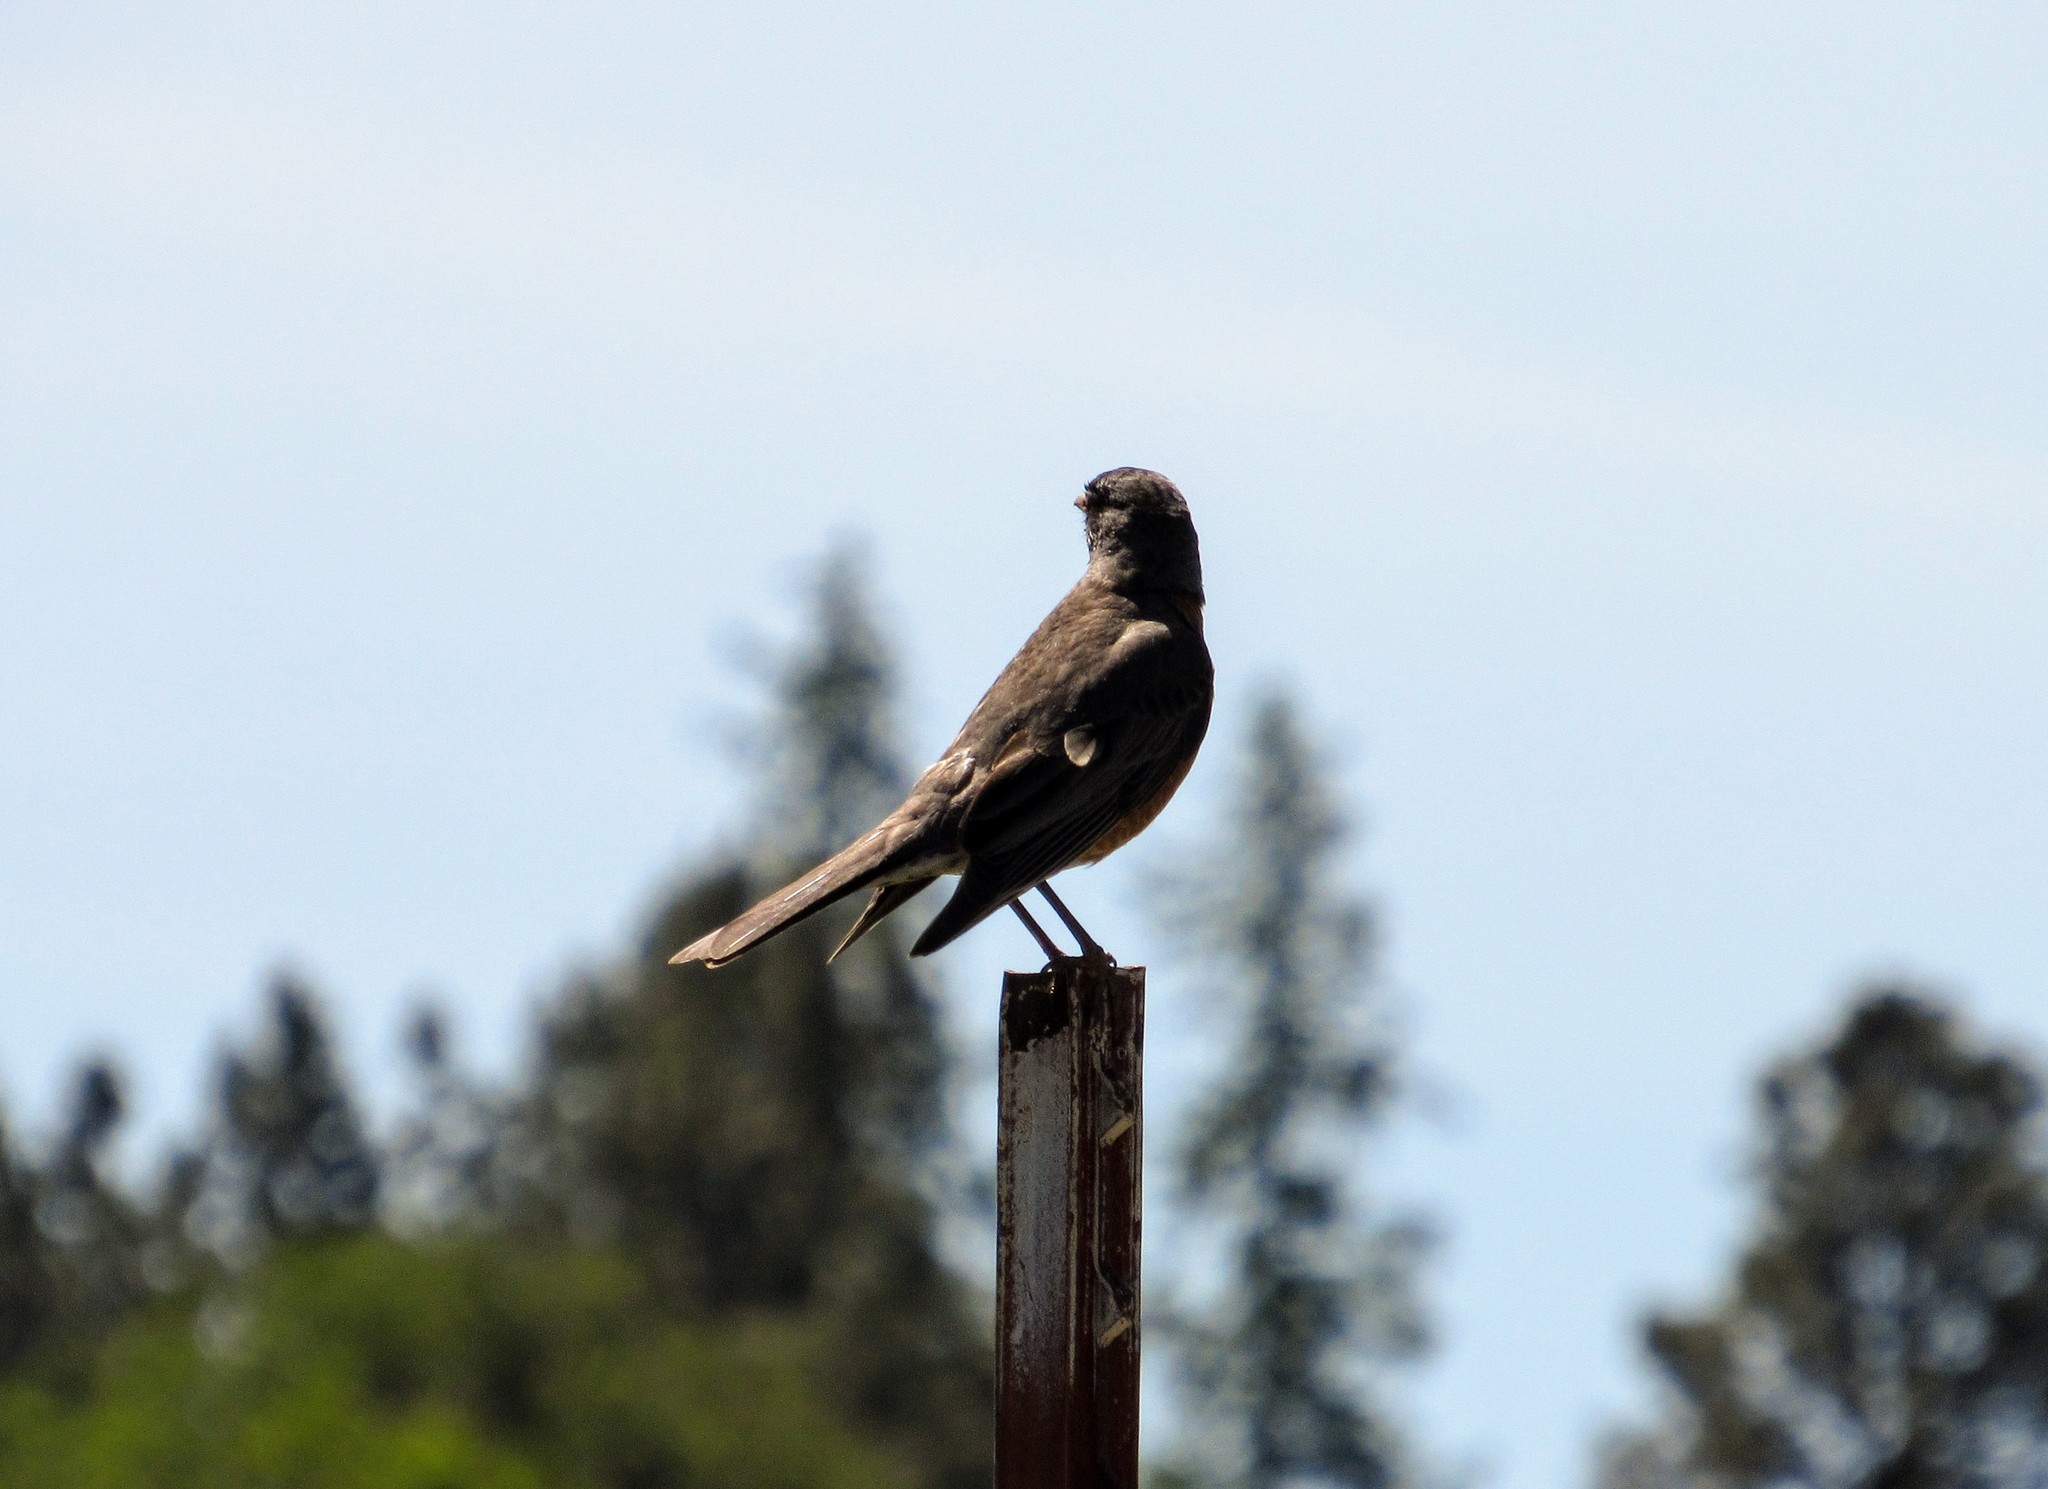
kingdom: Animalia
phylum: Chordata
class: Aves
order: Passeriformes
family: Turdidae
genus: Turdus
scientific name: Turdus migratorius
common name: American robin
